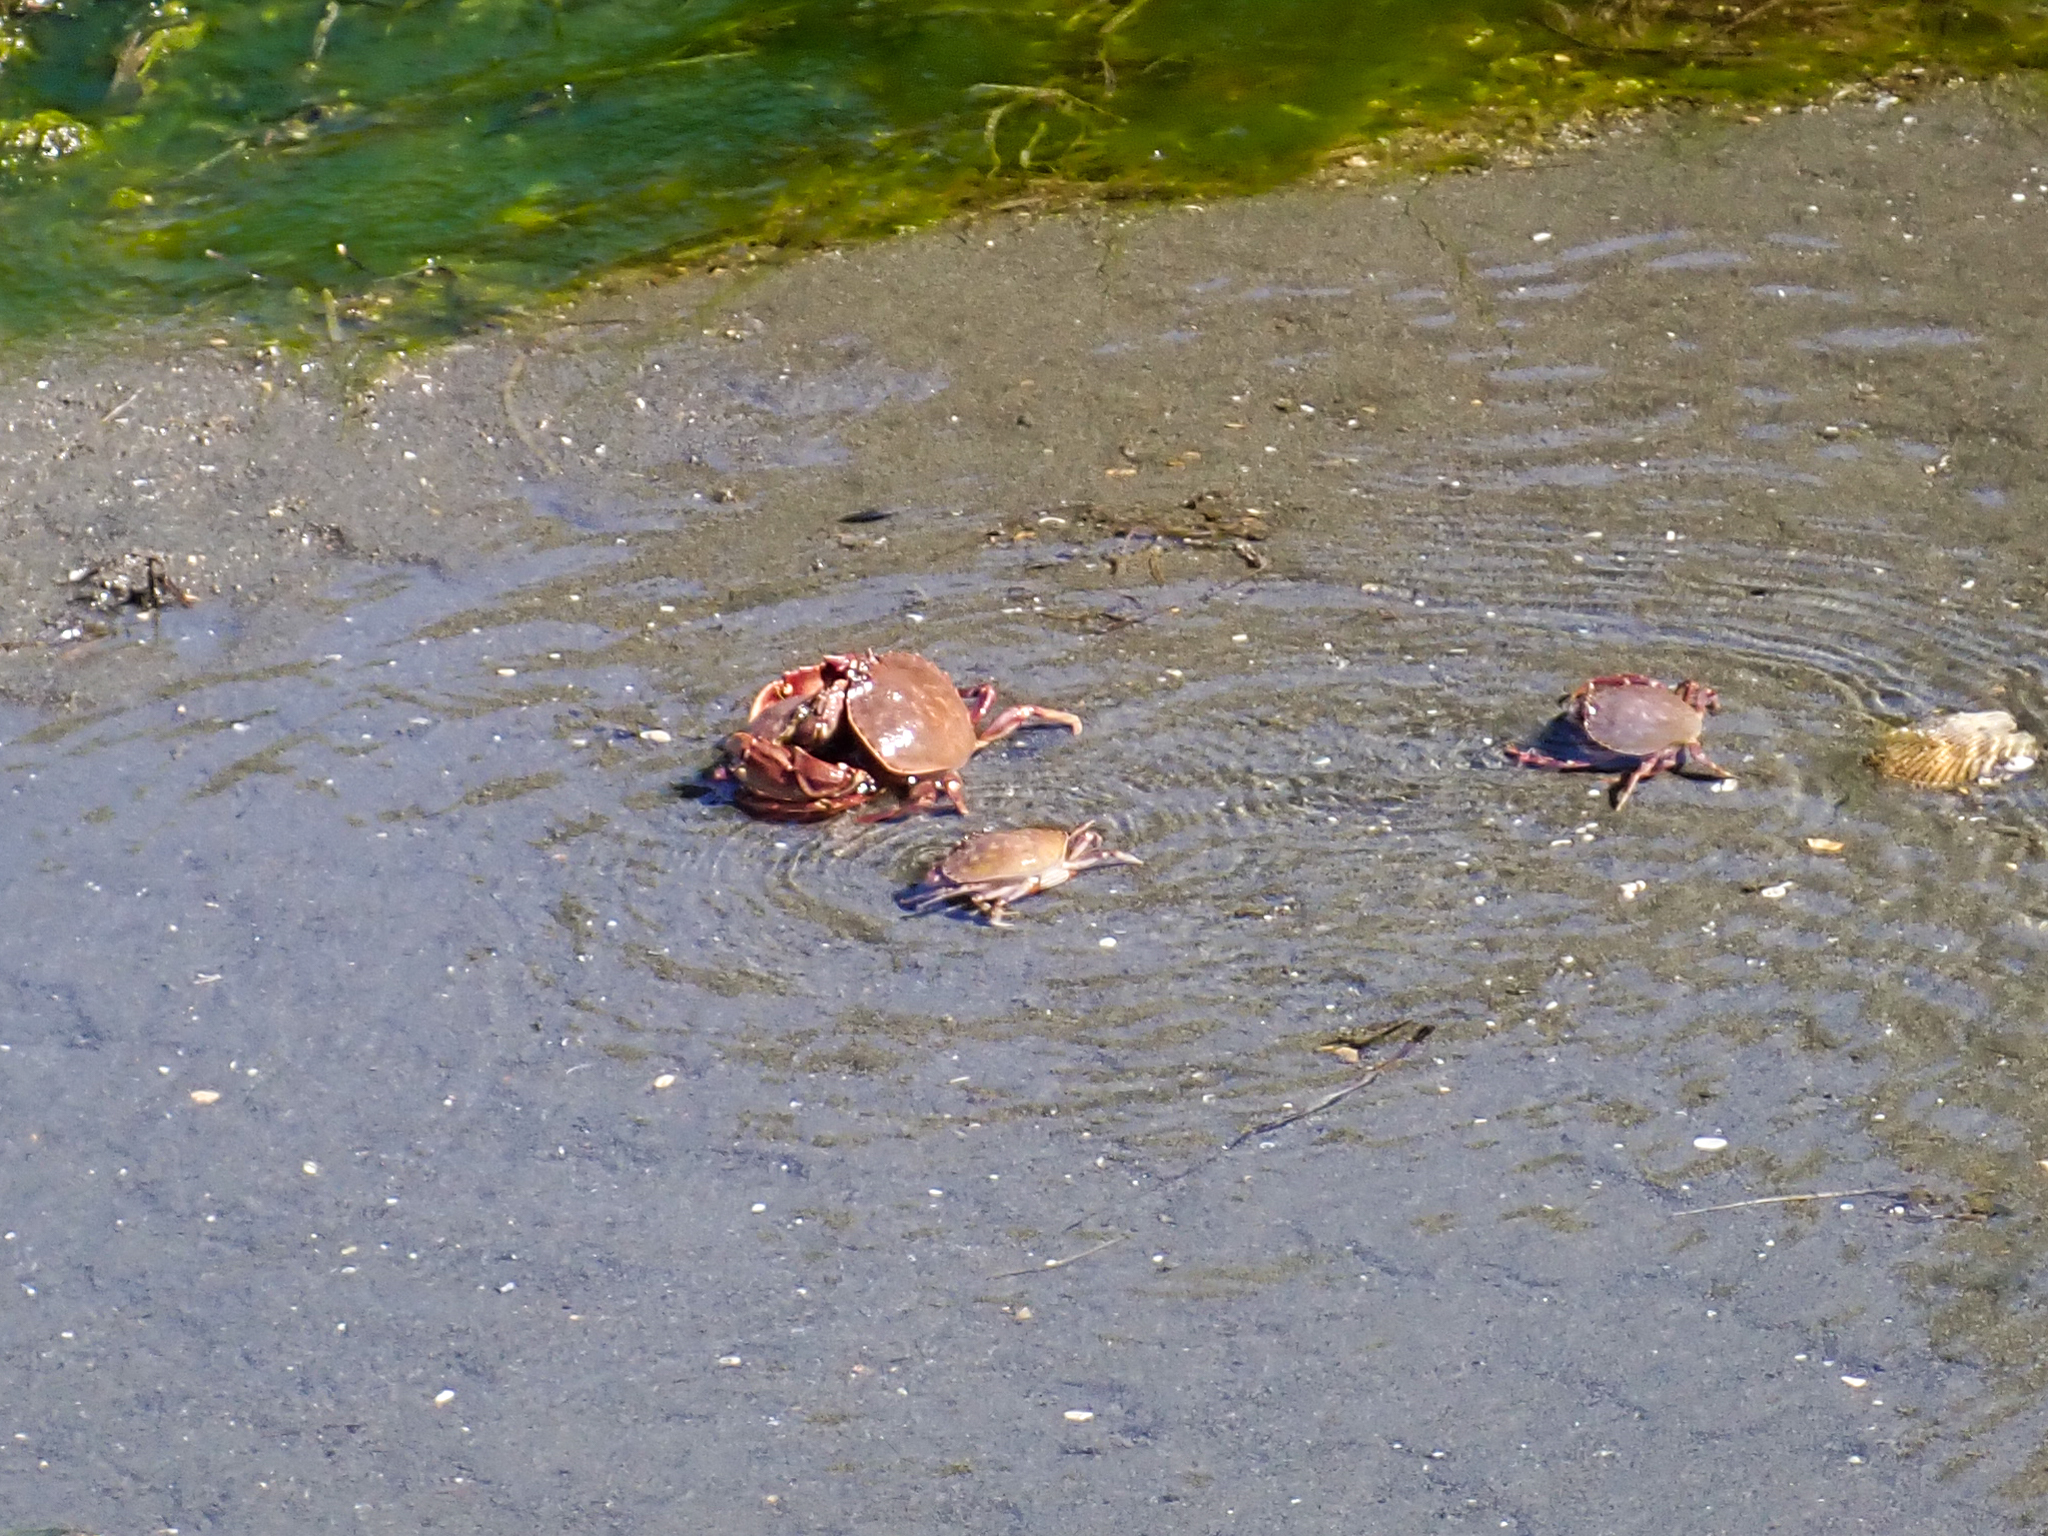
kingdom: Animalia
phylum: Arthropoda
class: Malacostraca
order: Decapoda
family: Cancridae
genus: Metacarcinus
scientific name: Metacarcinus gracilis
